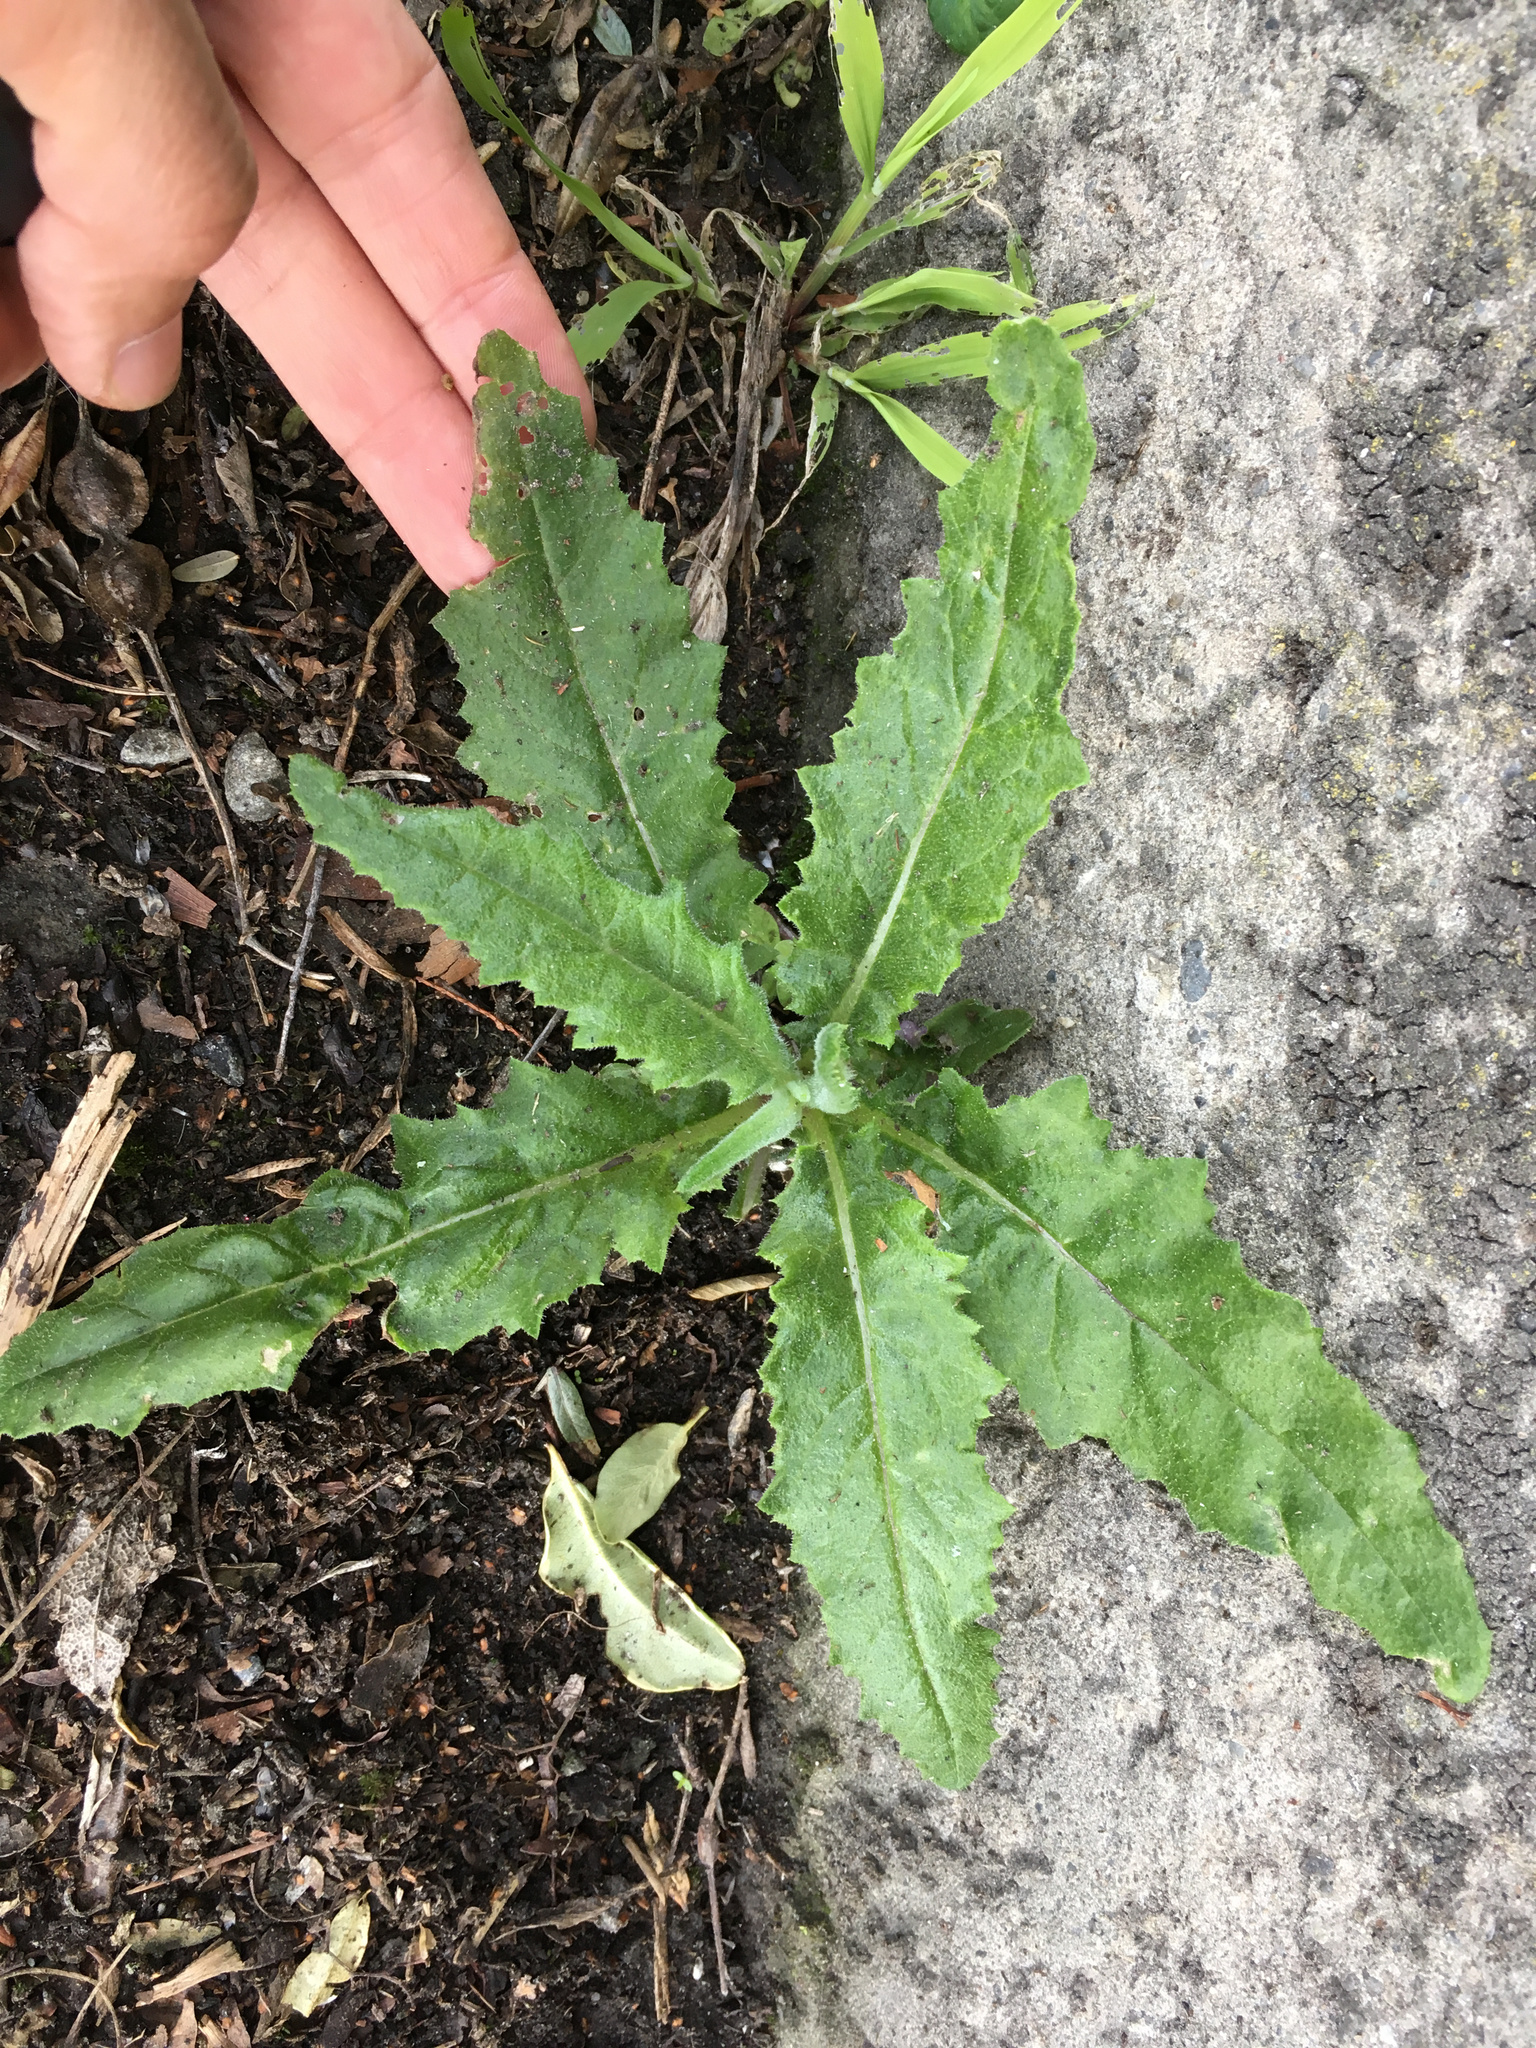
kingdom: Plantae
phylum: Tracheophyta
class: Magnoliopsida
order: Asterales
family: Asteraceae
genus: Senecio
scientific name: Senecio minimus
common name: Toothed fireweed
